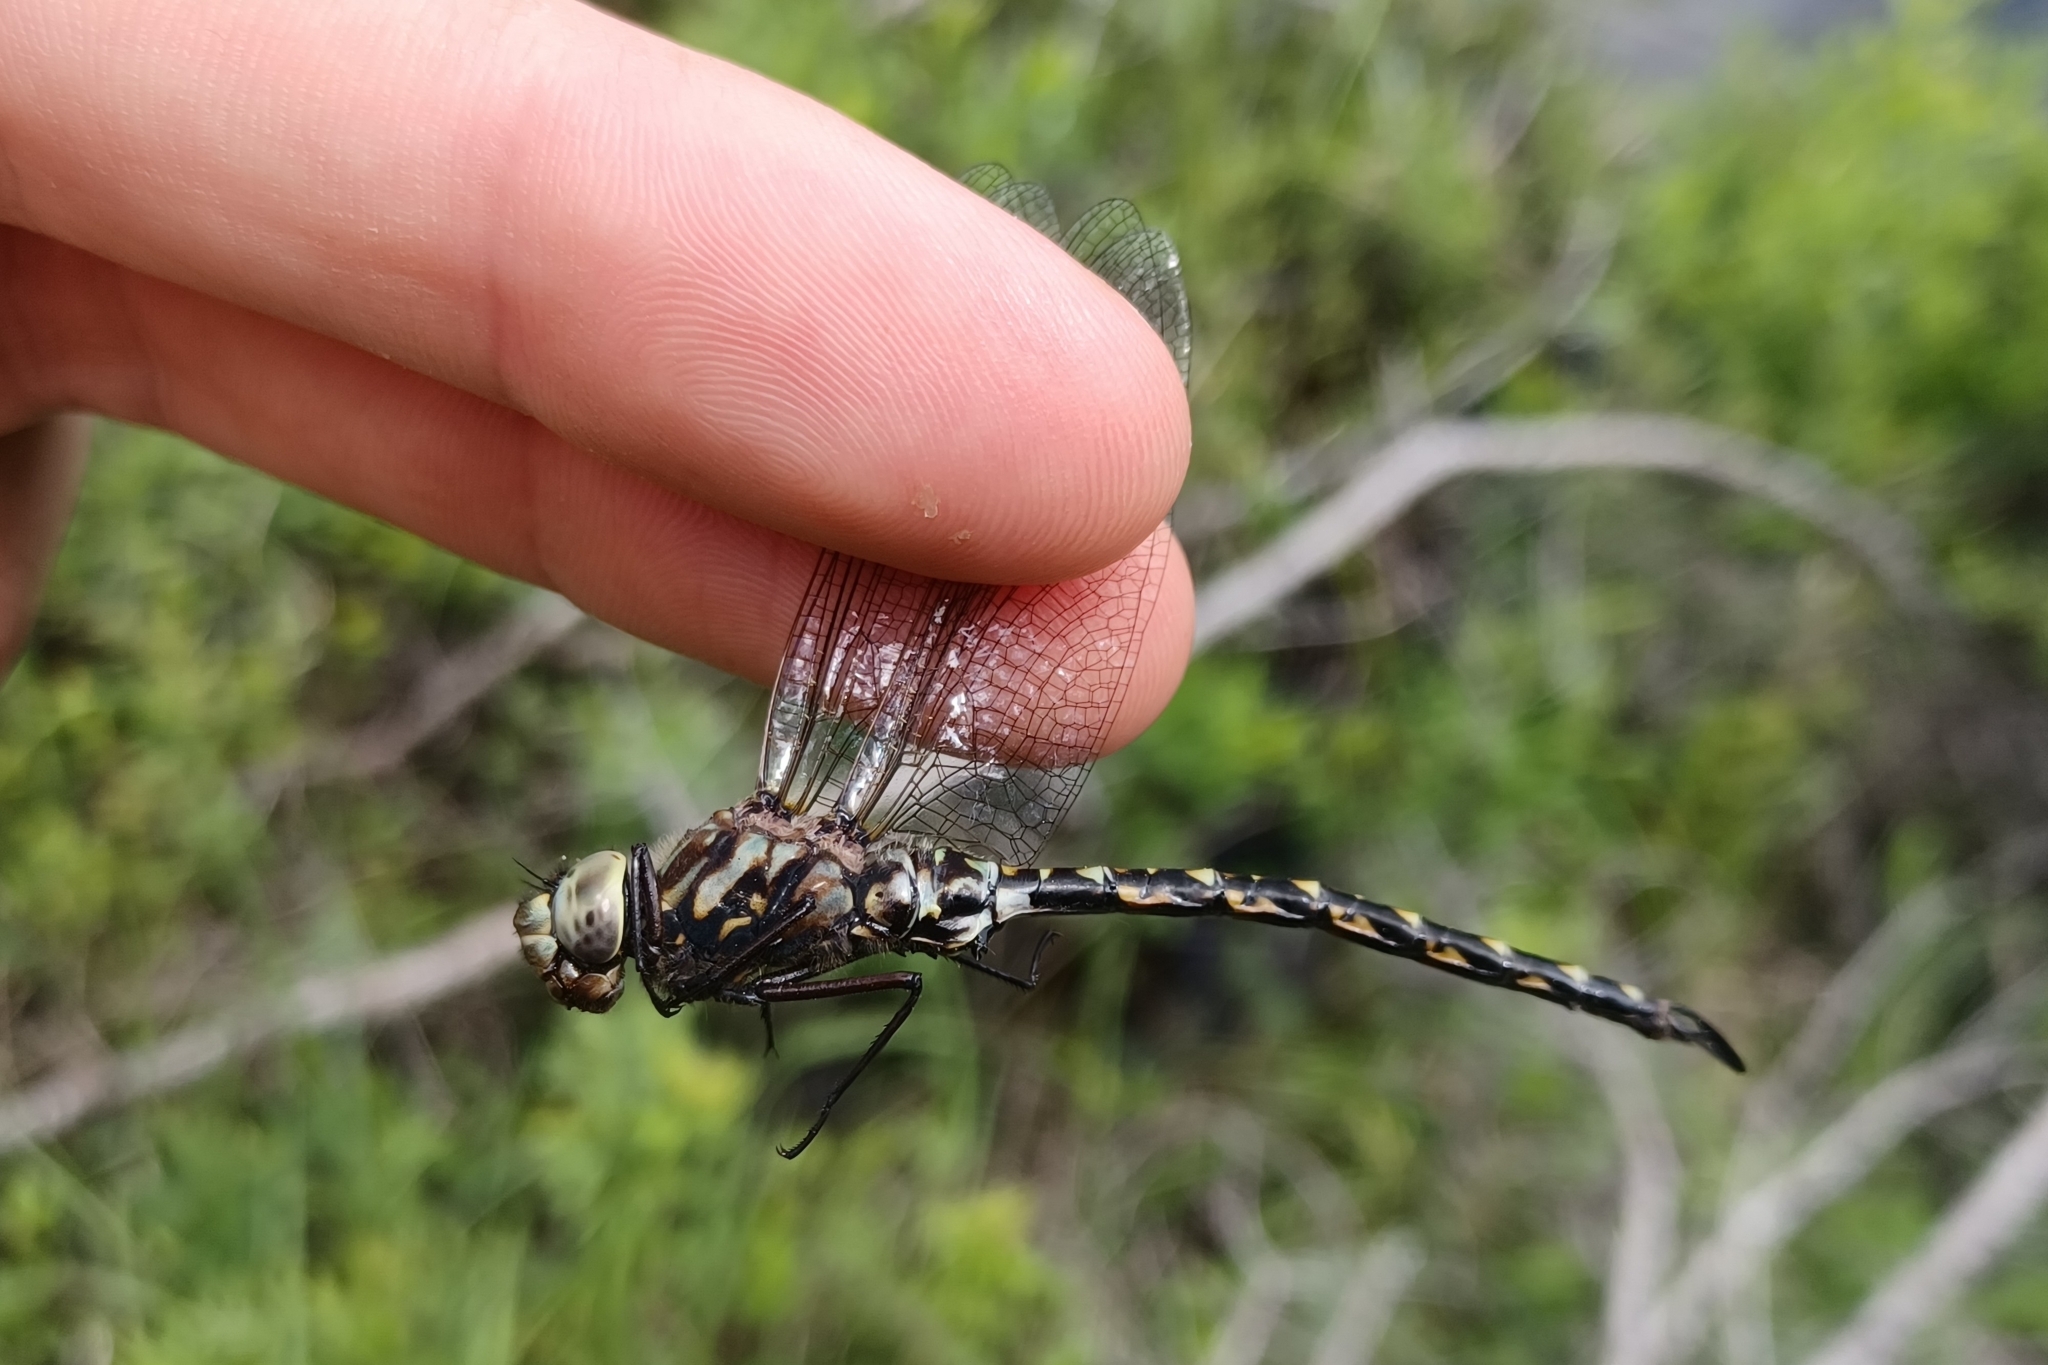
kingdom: Animalia
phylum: Arthropoda
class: Insecta
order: Odonata
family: Aeshnidae
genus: Gomphaeschna
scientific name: Gomphaeschna furcillata
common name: Harlequin darner
